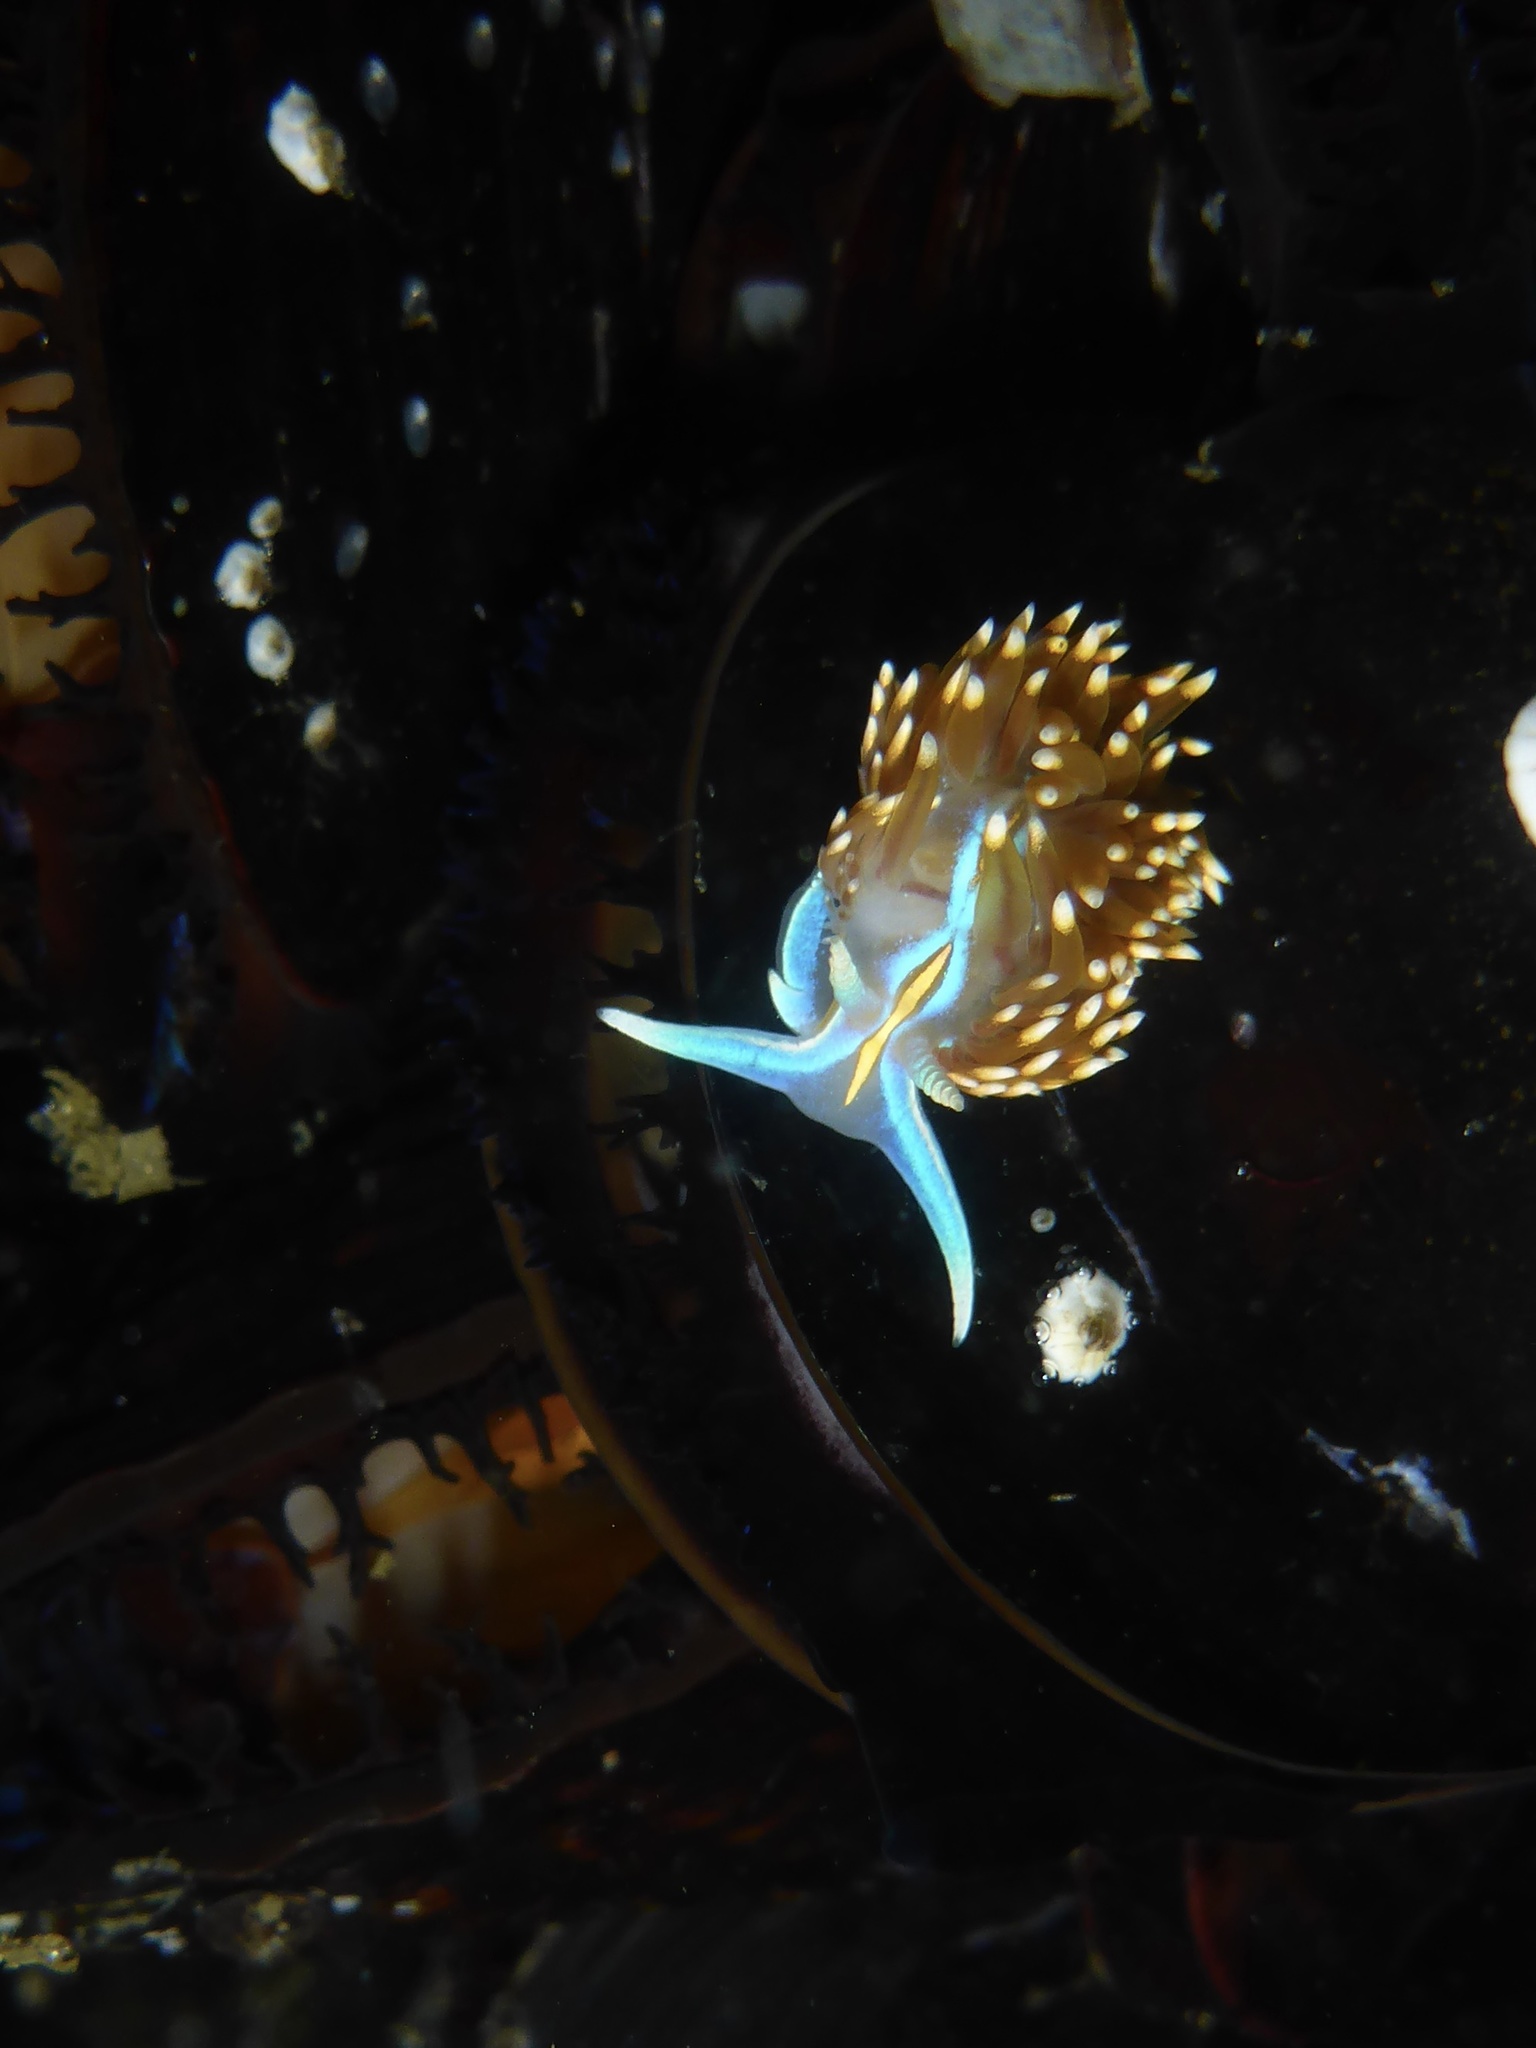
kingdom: Animalia
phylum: Mollusca
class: Gastropoda
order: Nudibranchia
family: Myrrhinidae
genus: Hermissenda
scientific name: Hermissenda opalescens
